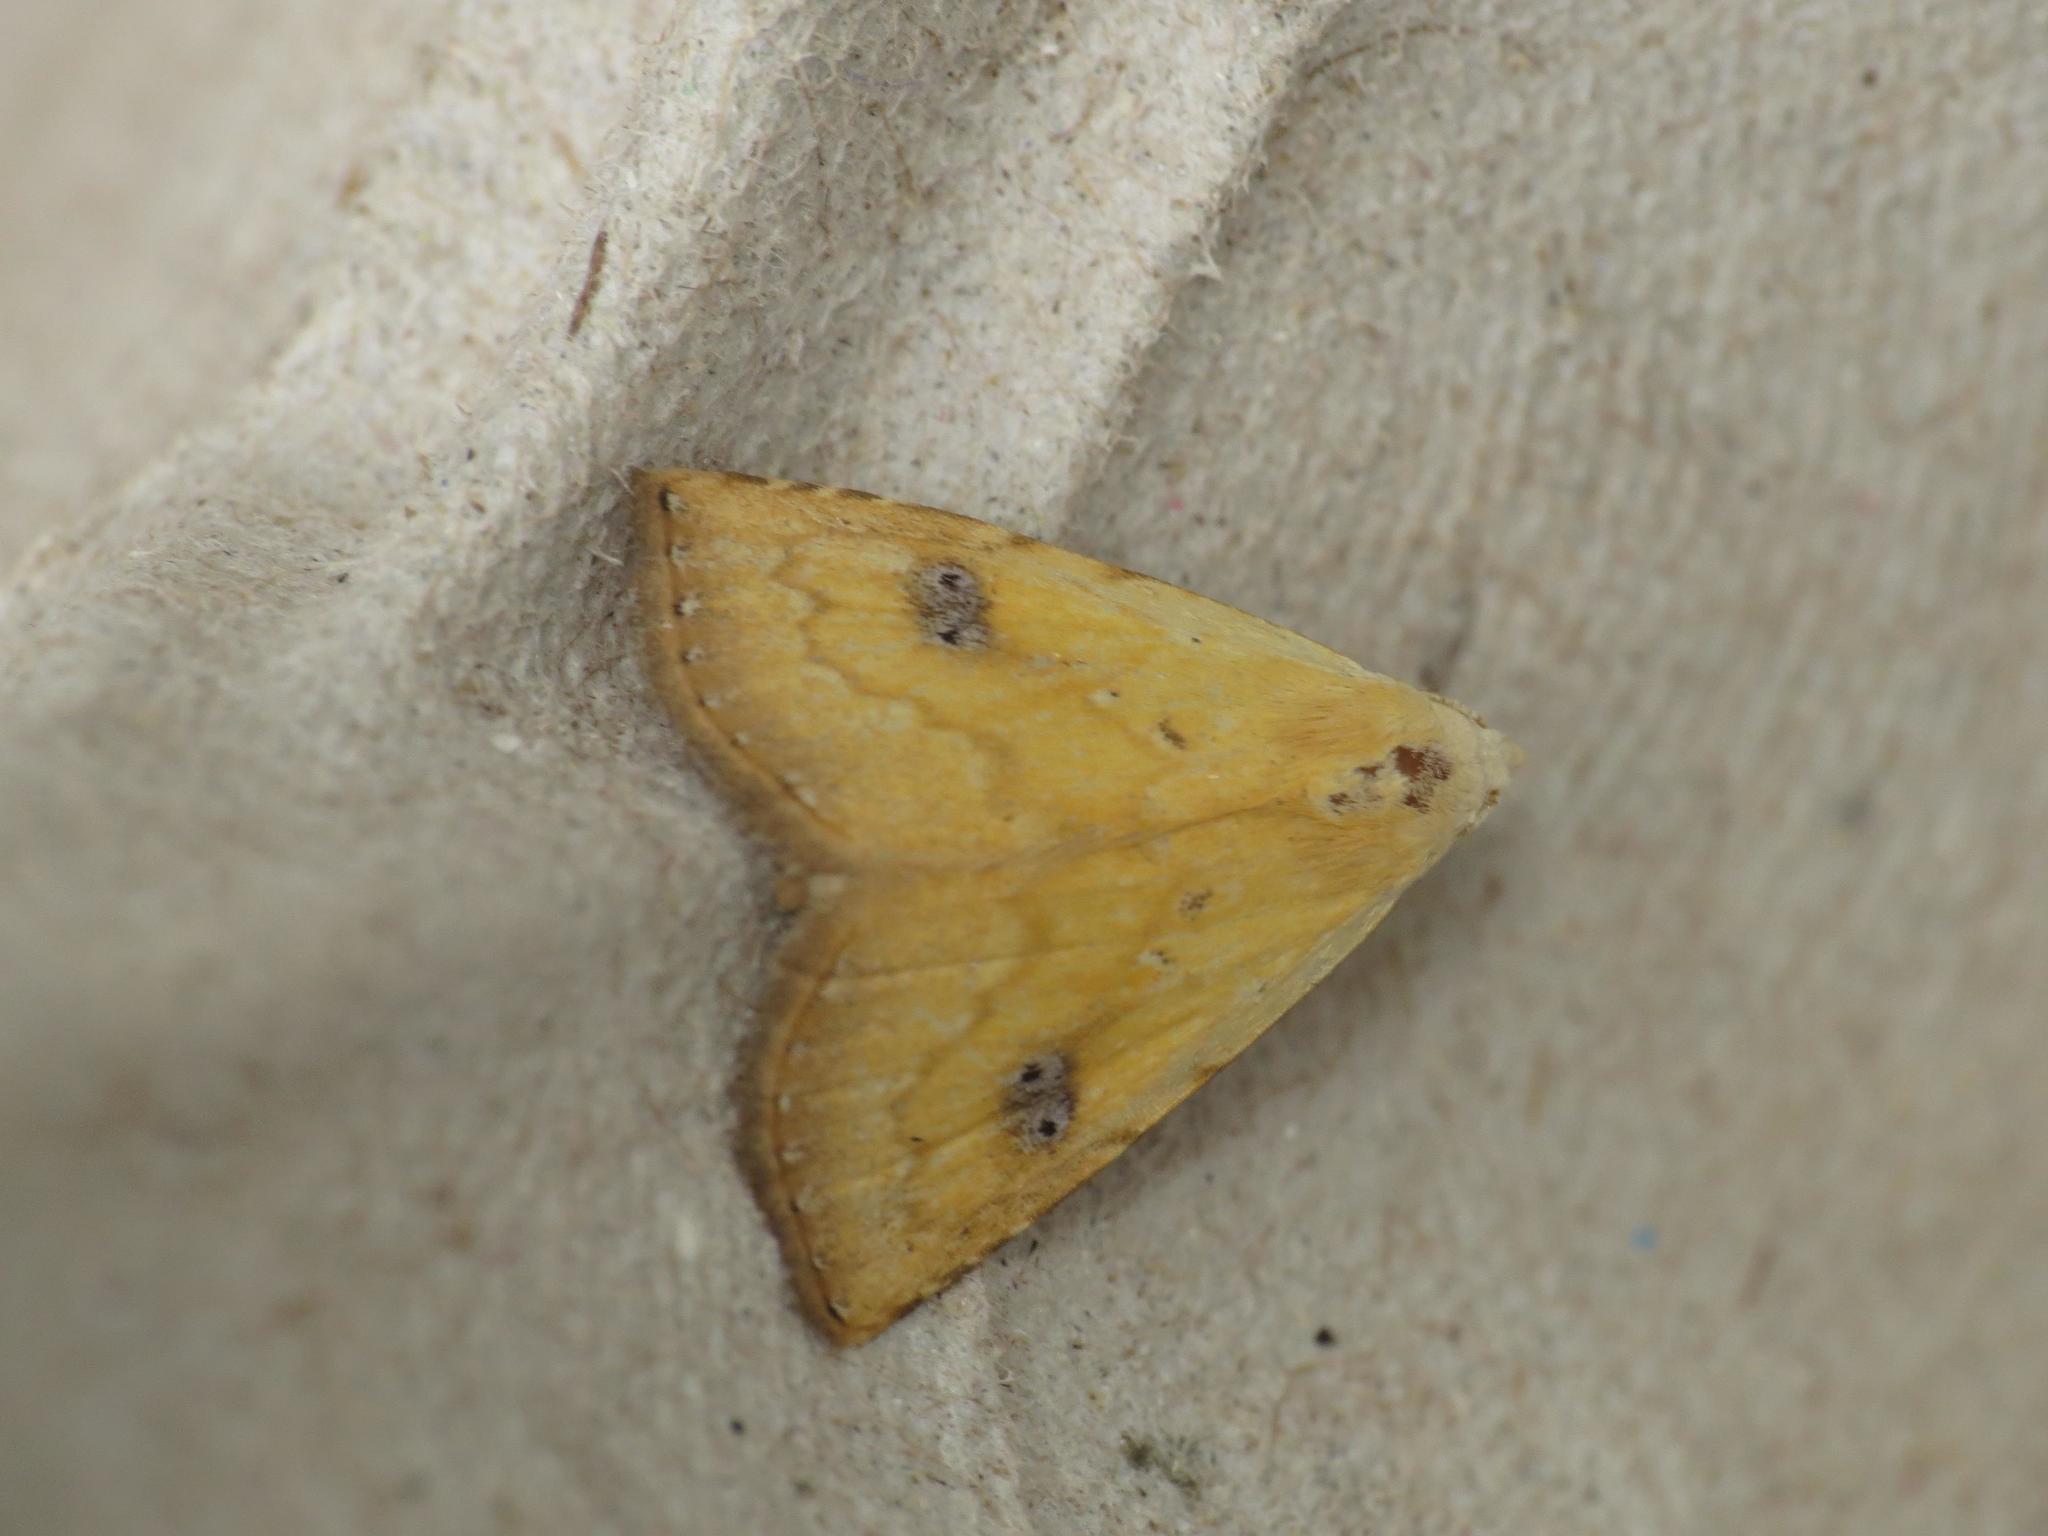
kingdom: Animalia
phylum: Arthropoda
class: Insecta
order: Lepidoptera
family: Erebidae
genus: Rivula
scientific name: Rivula sericealis
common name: Straw dot
